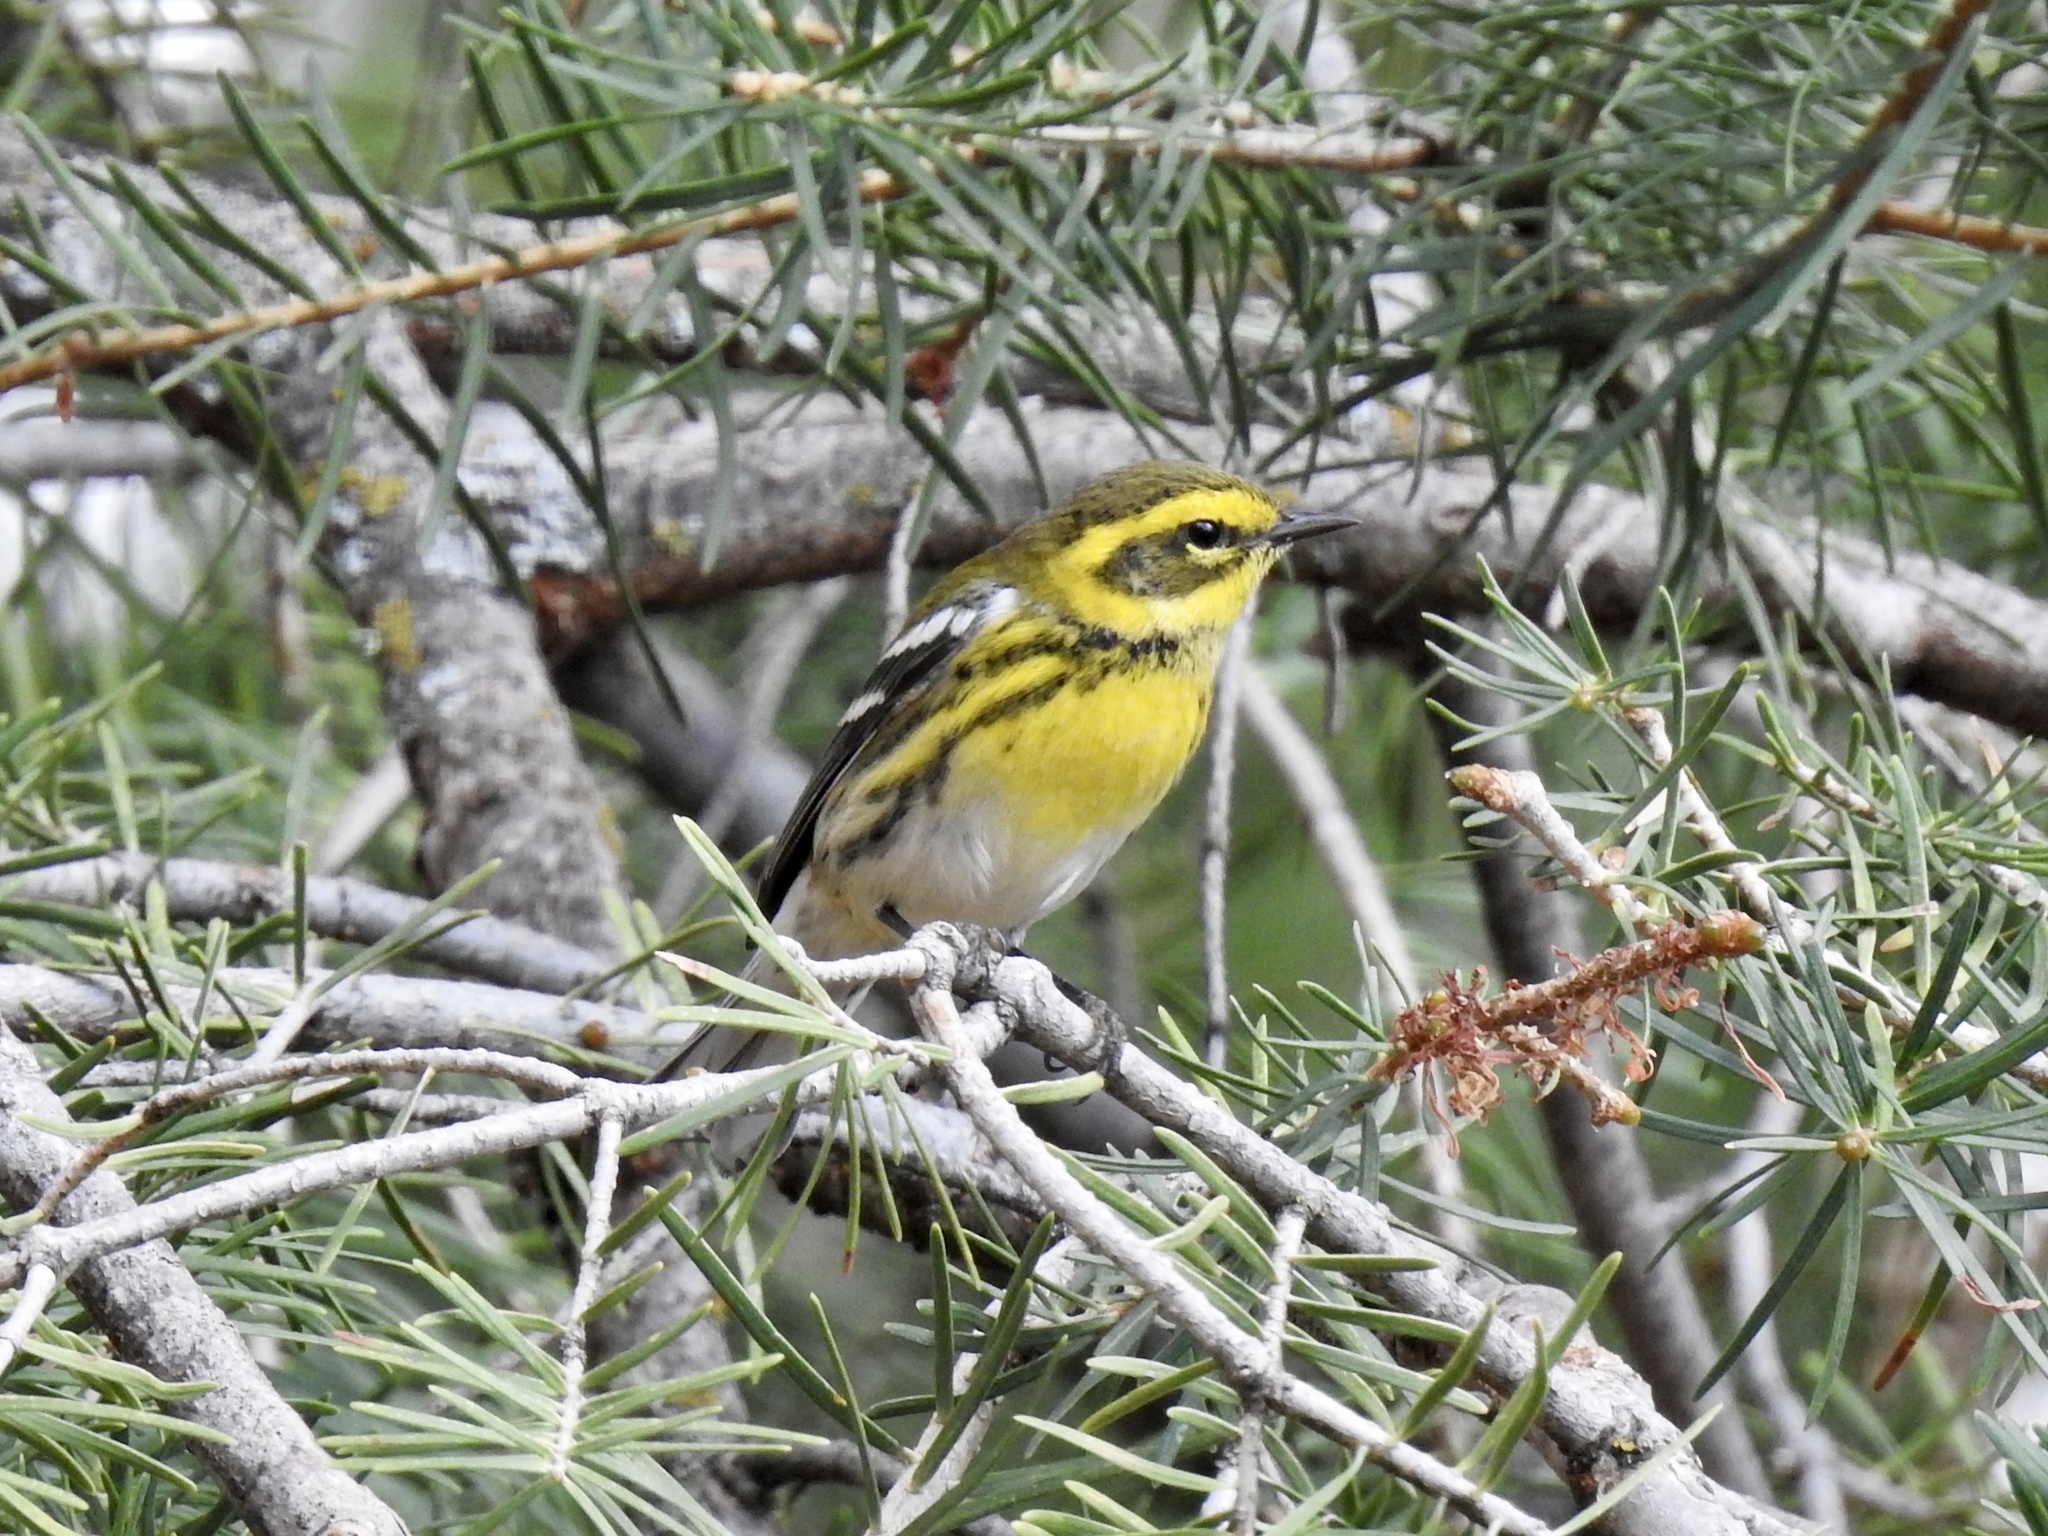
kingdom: Animalia
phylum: Chordata
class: Aves
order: Passeriformes
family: Parulidae
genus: Setophaga
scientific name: Setophaga townsendi
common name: Townsend's warbler
